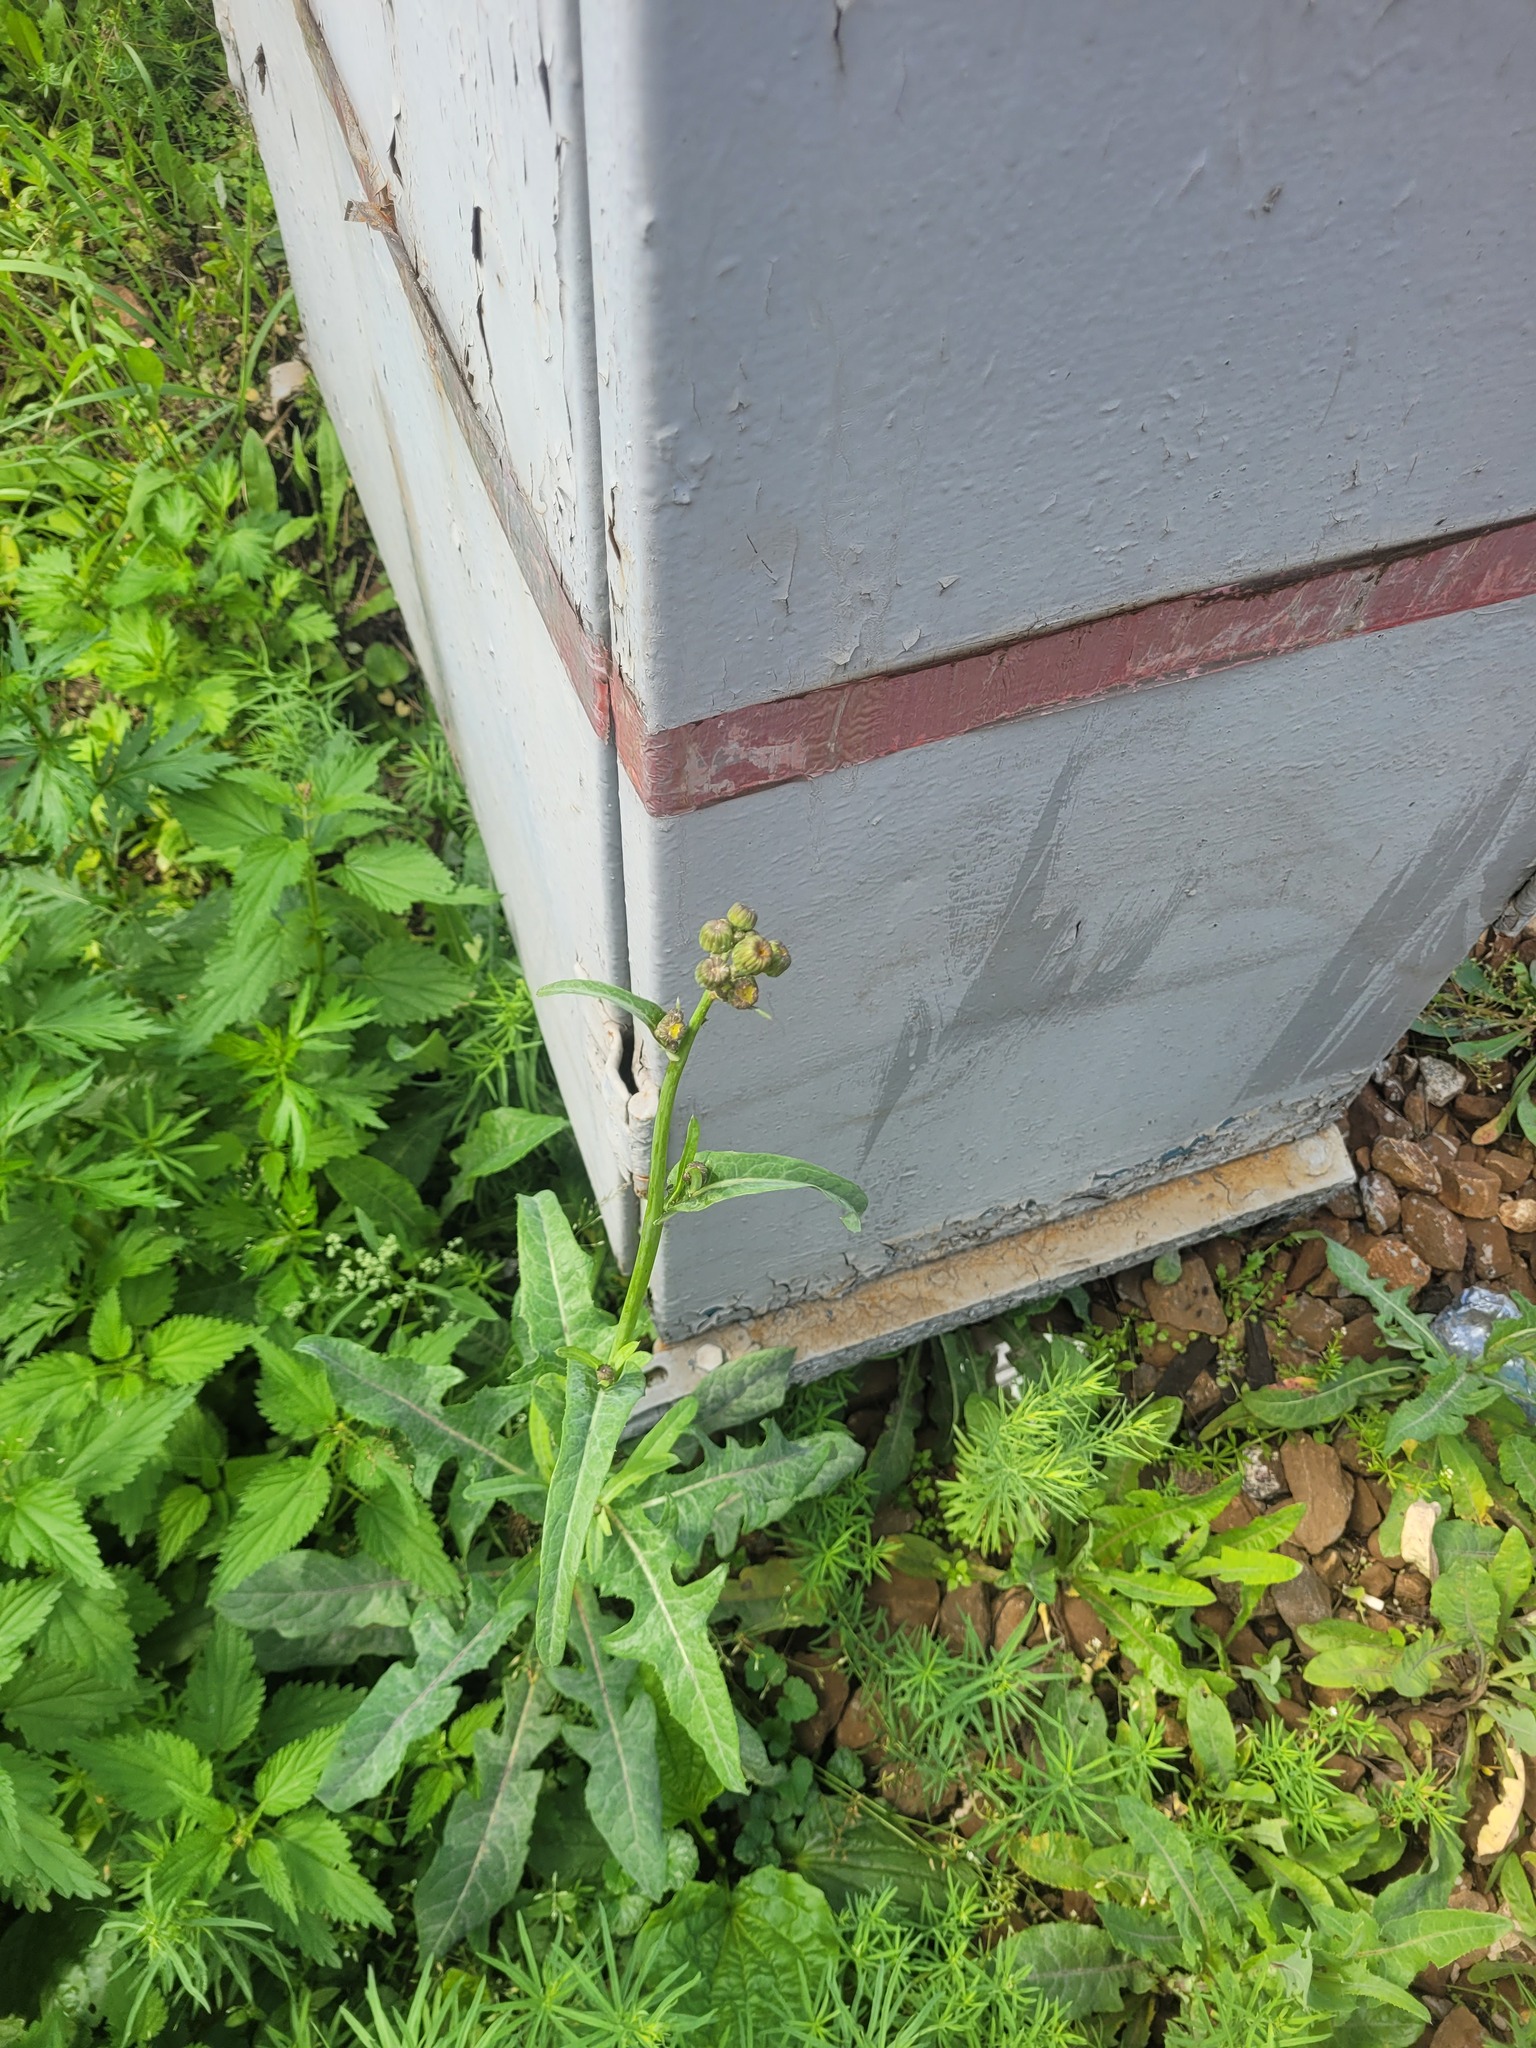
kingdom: Plantae
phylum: Tracheophyta
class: Magnoliopsida
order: Asterales
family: Asteraceae
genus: Sonchus
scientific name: Sonchus arvensis
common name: Perennial sow-thistle
